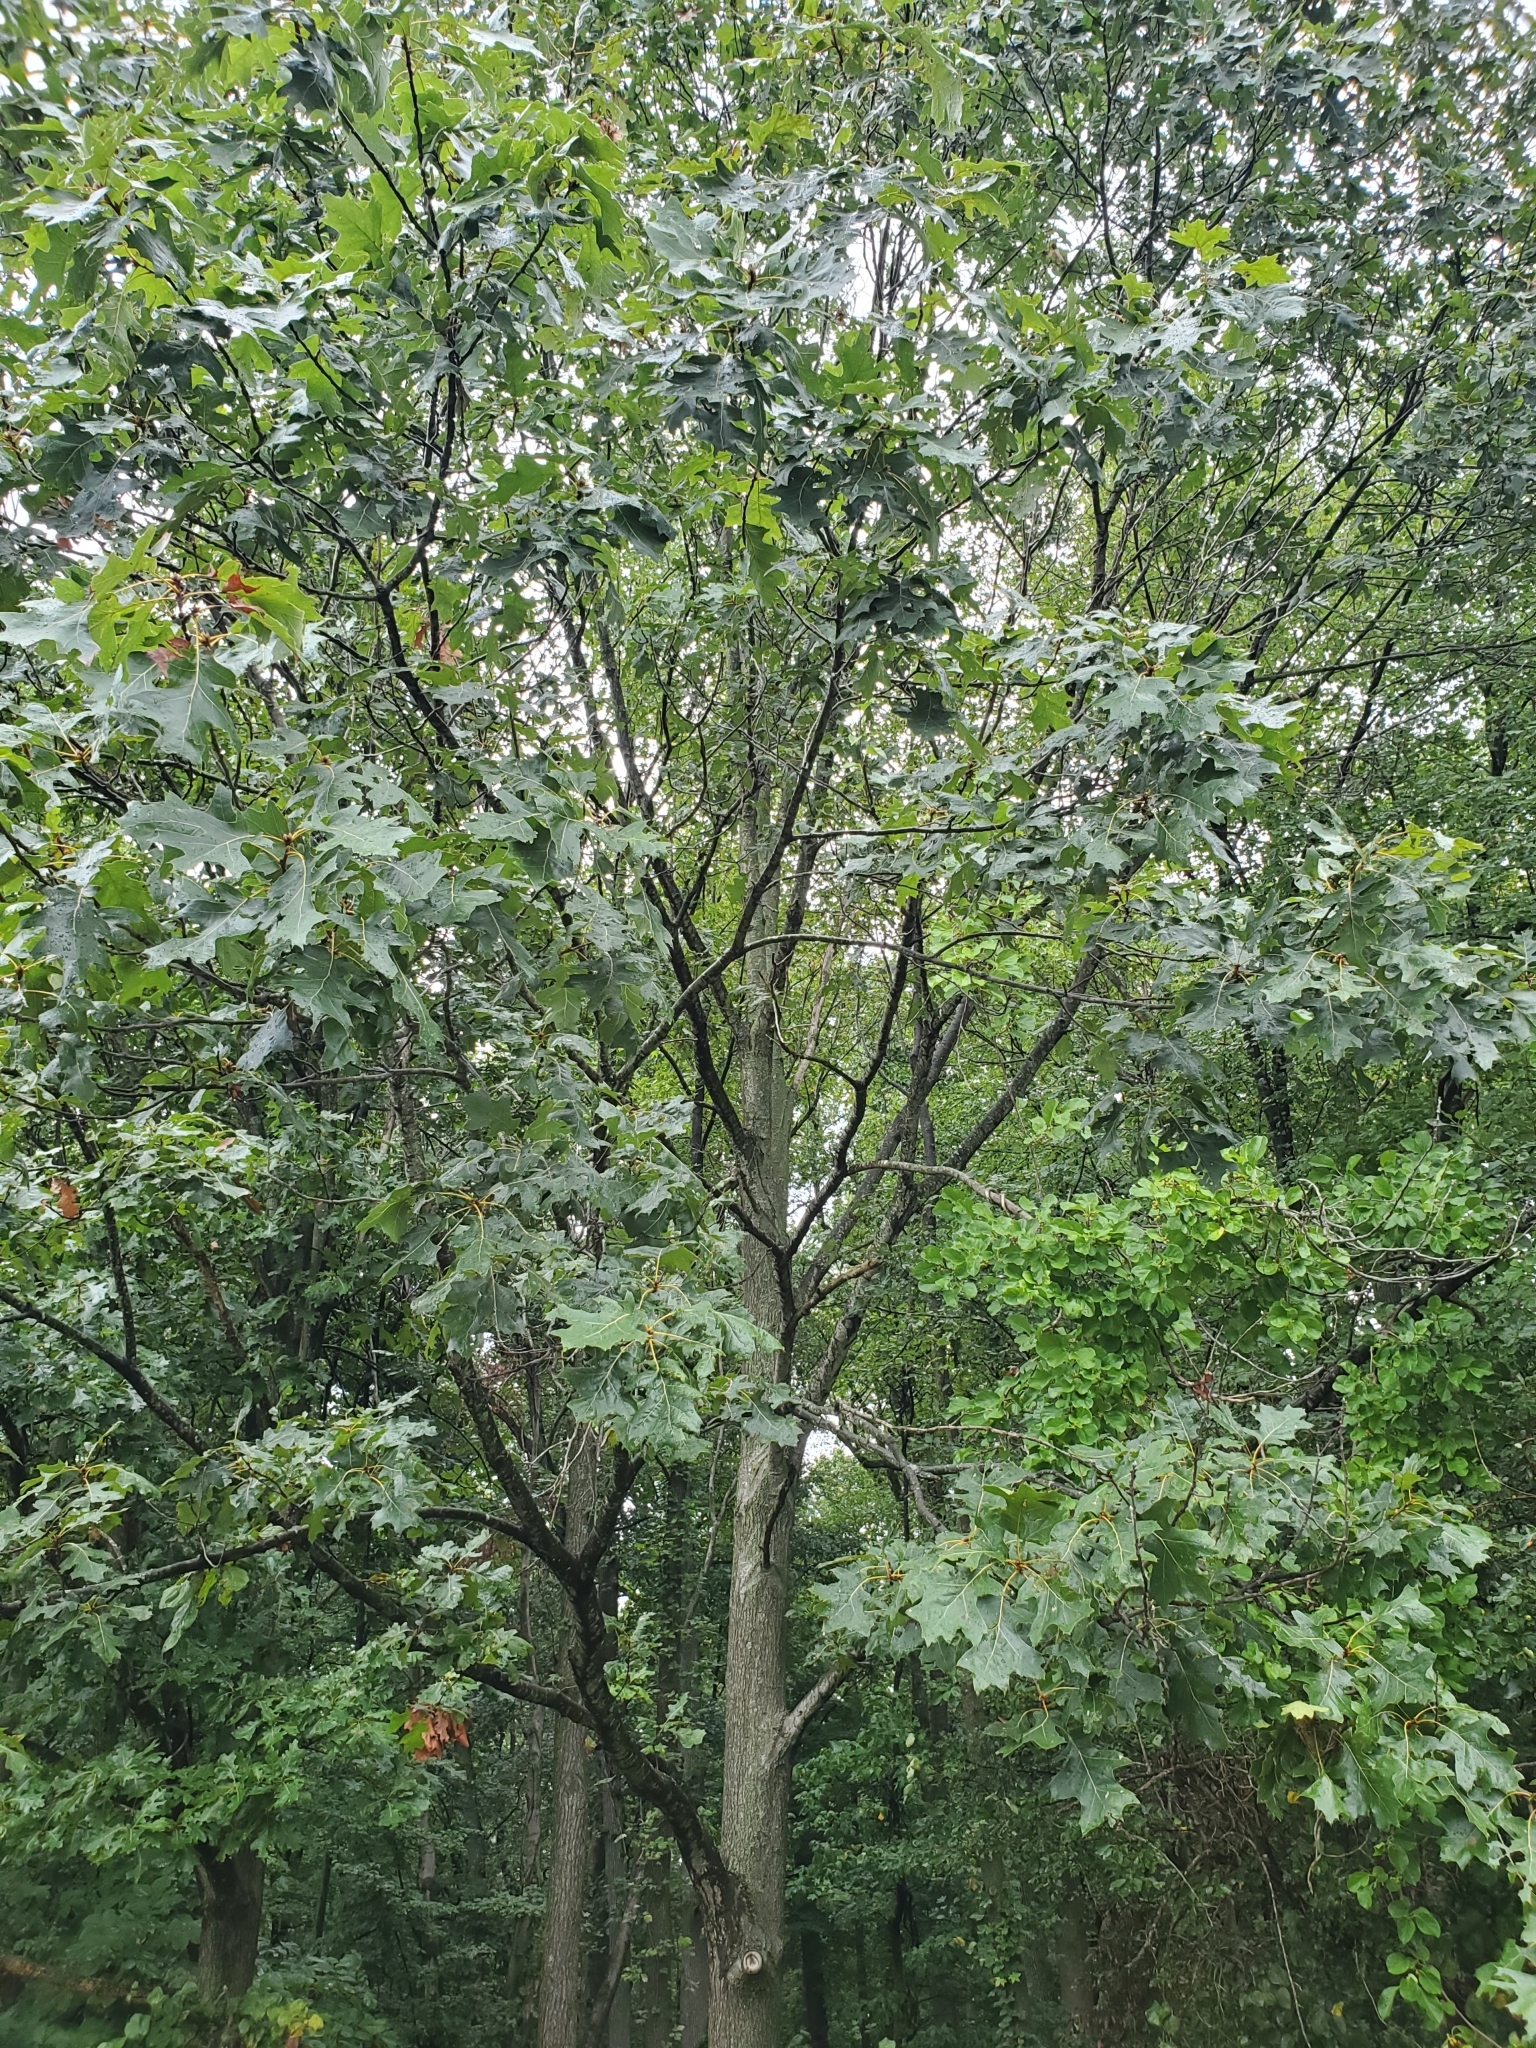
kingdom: Plantae
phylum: Tracheophyta
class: Magnoliopsida
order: Fagales
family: Fagaceae
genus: Quercus
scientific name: Quercus velutina
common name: Black oak
